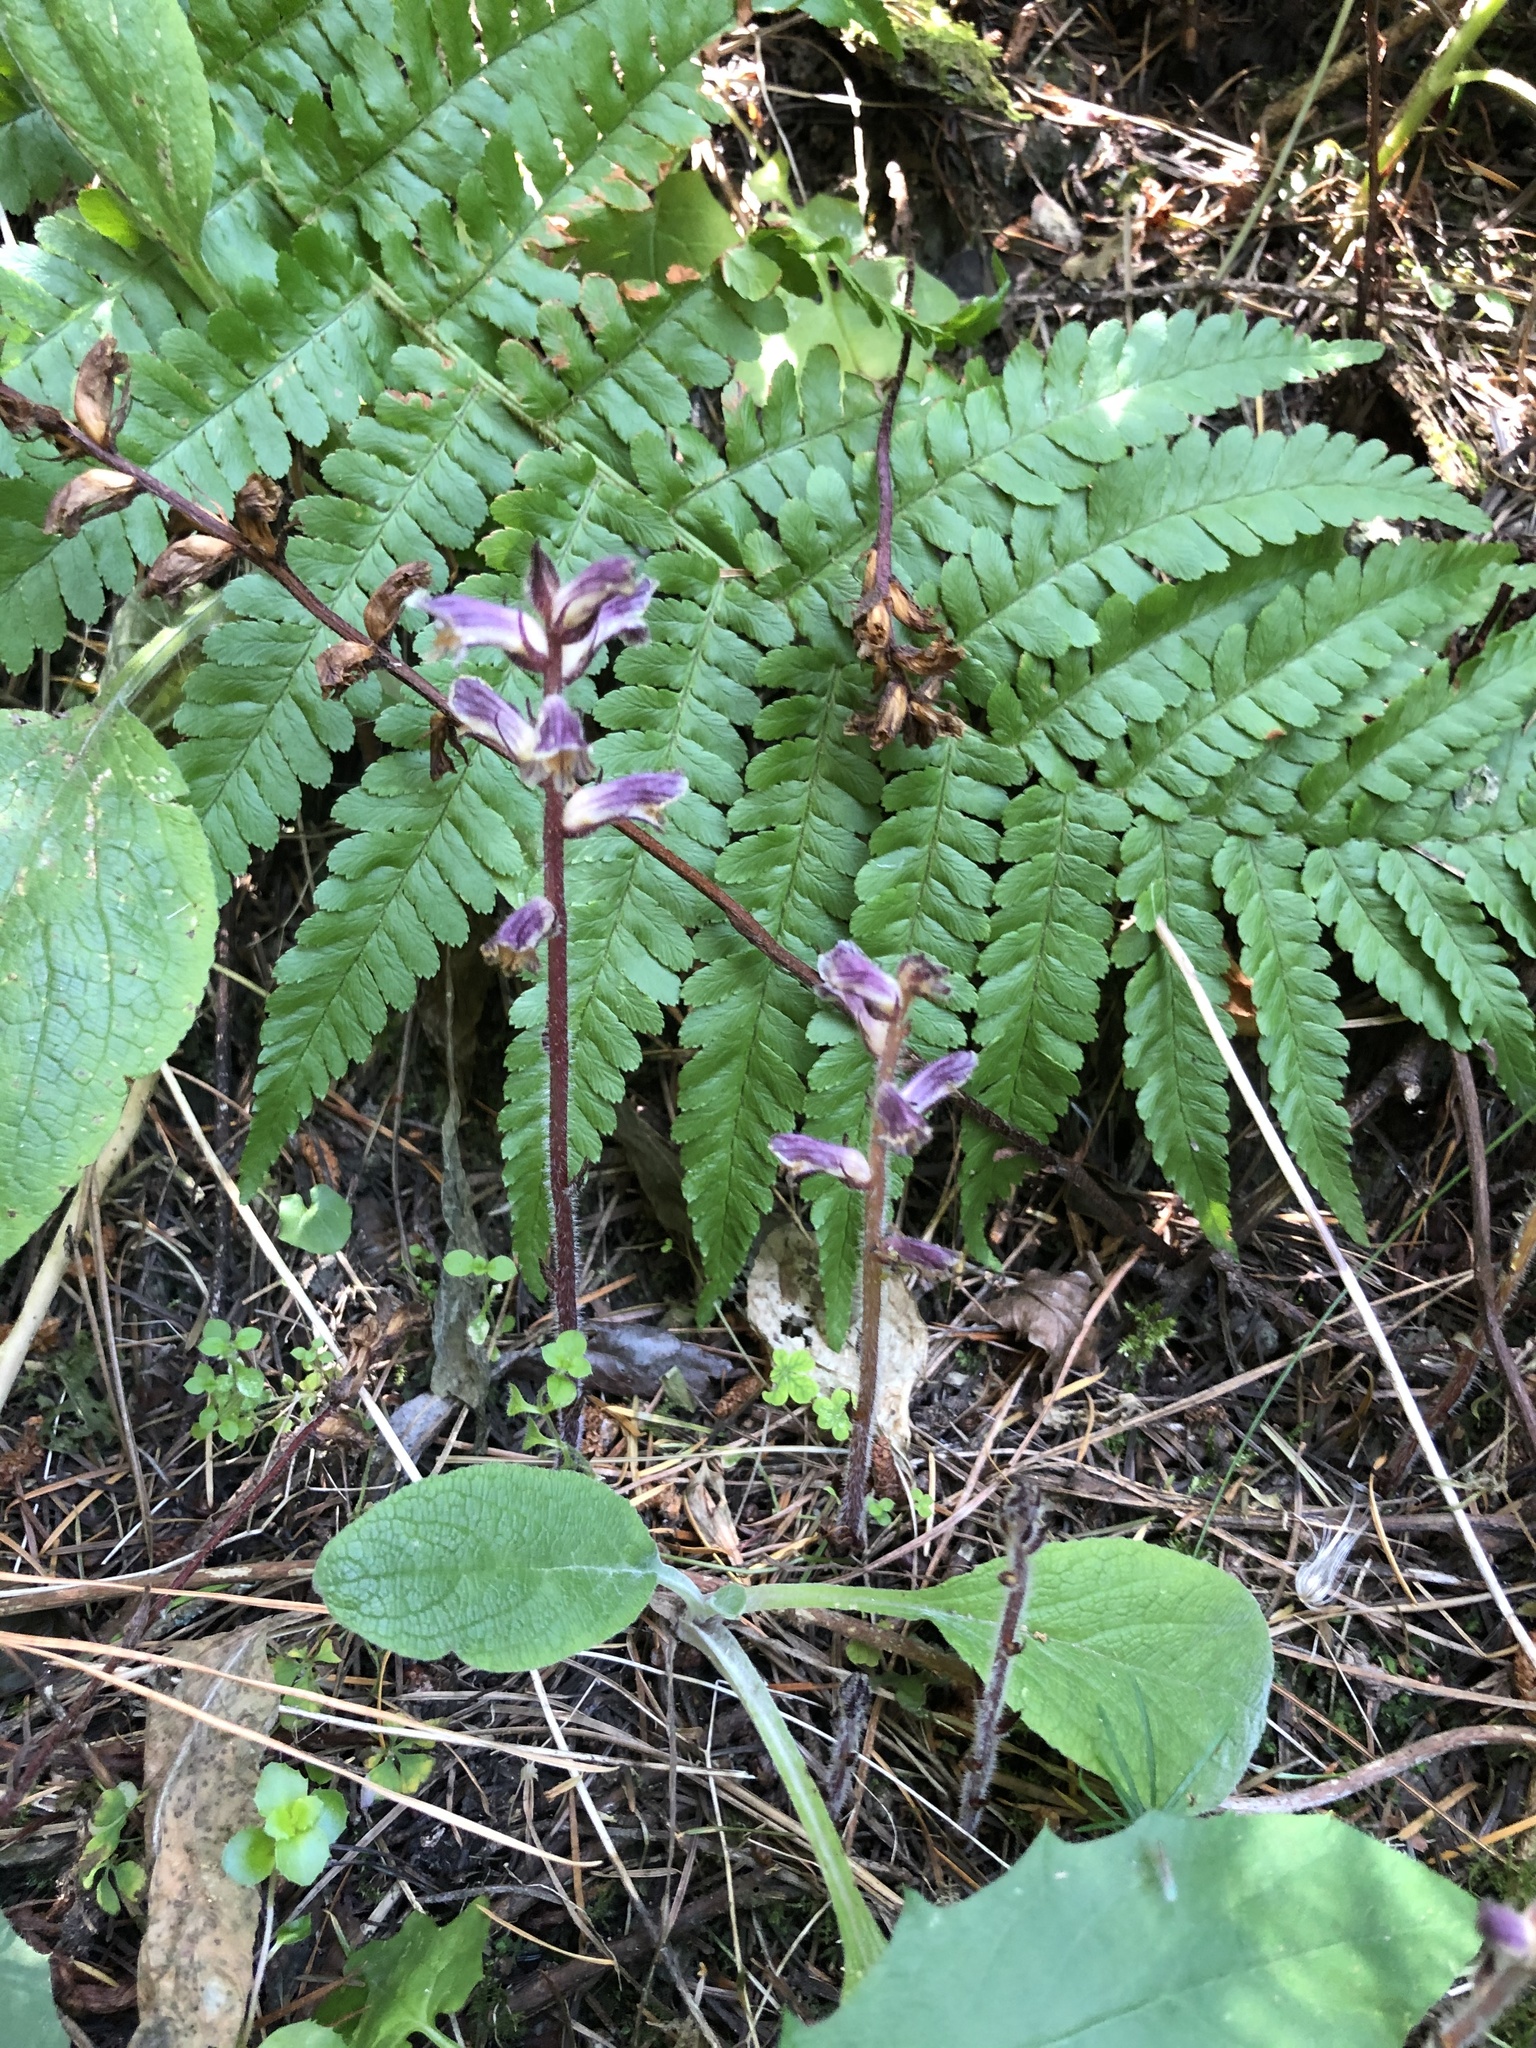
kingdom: Plantae
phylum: Tracheophyta
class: Magnoliopsida
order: Lamiales
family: Orobanchaceae
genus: Orobanche
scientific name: Orobanche minor
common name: Common broomrape
